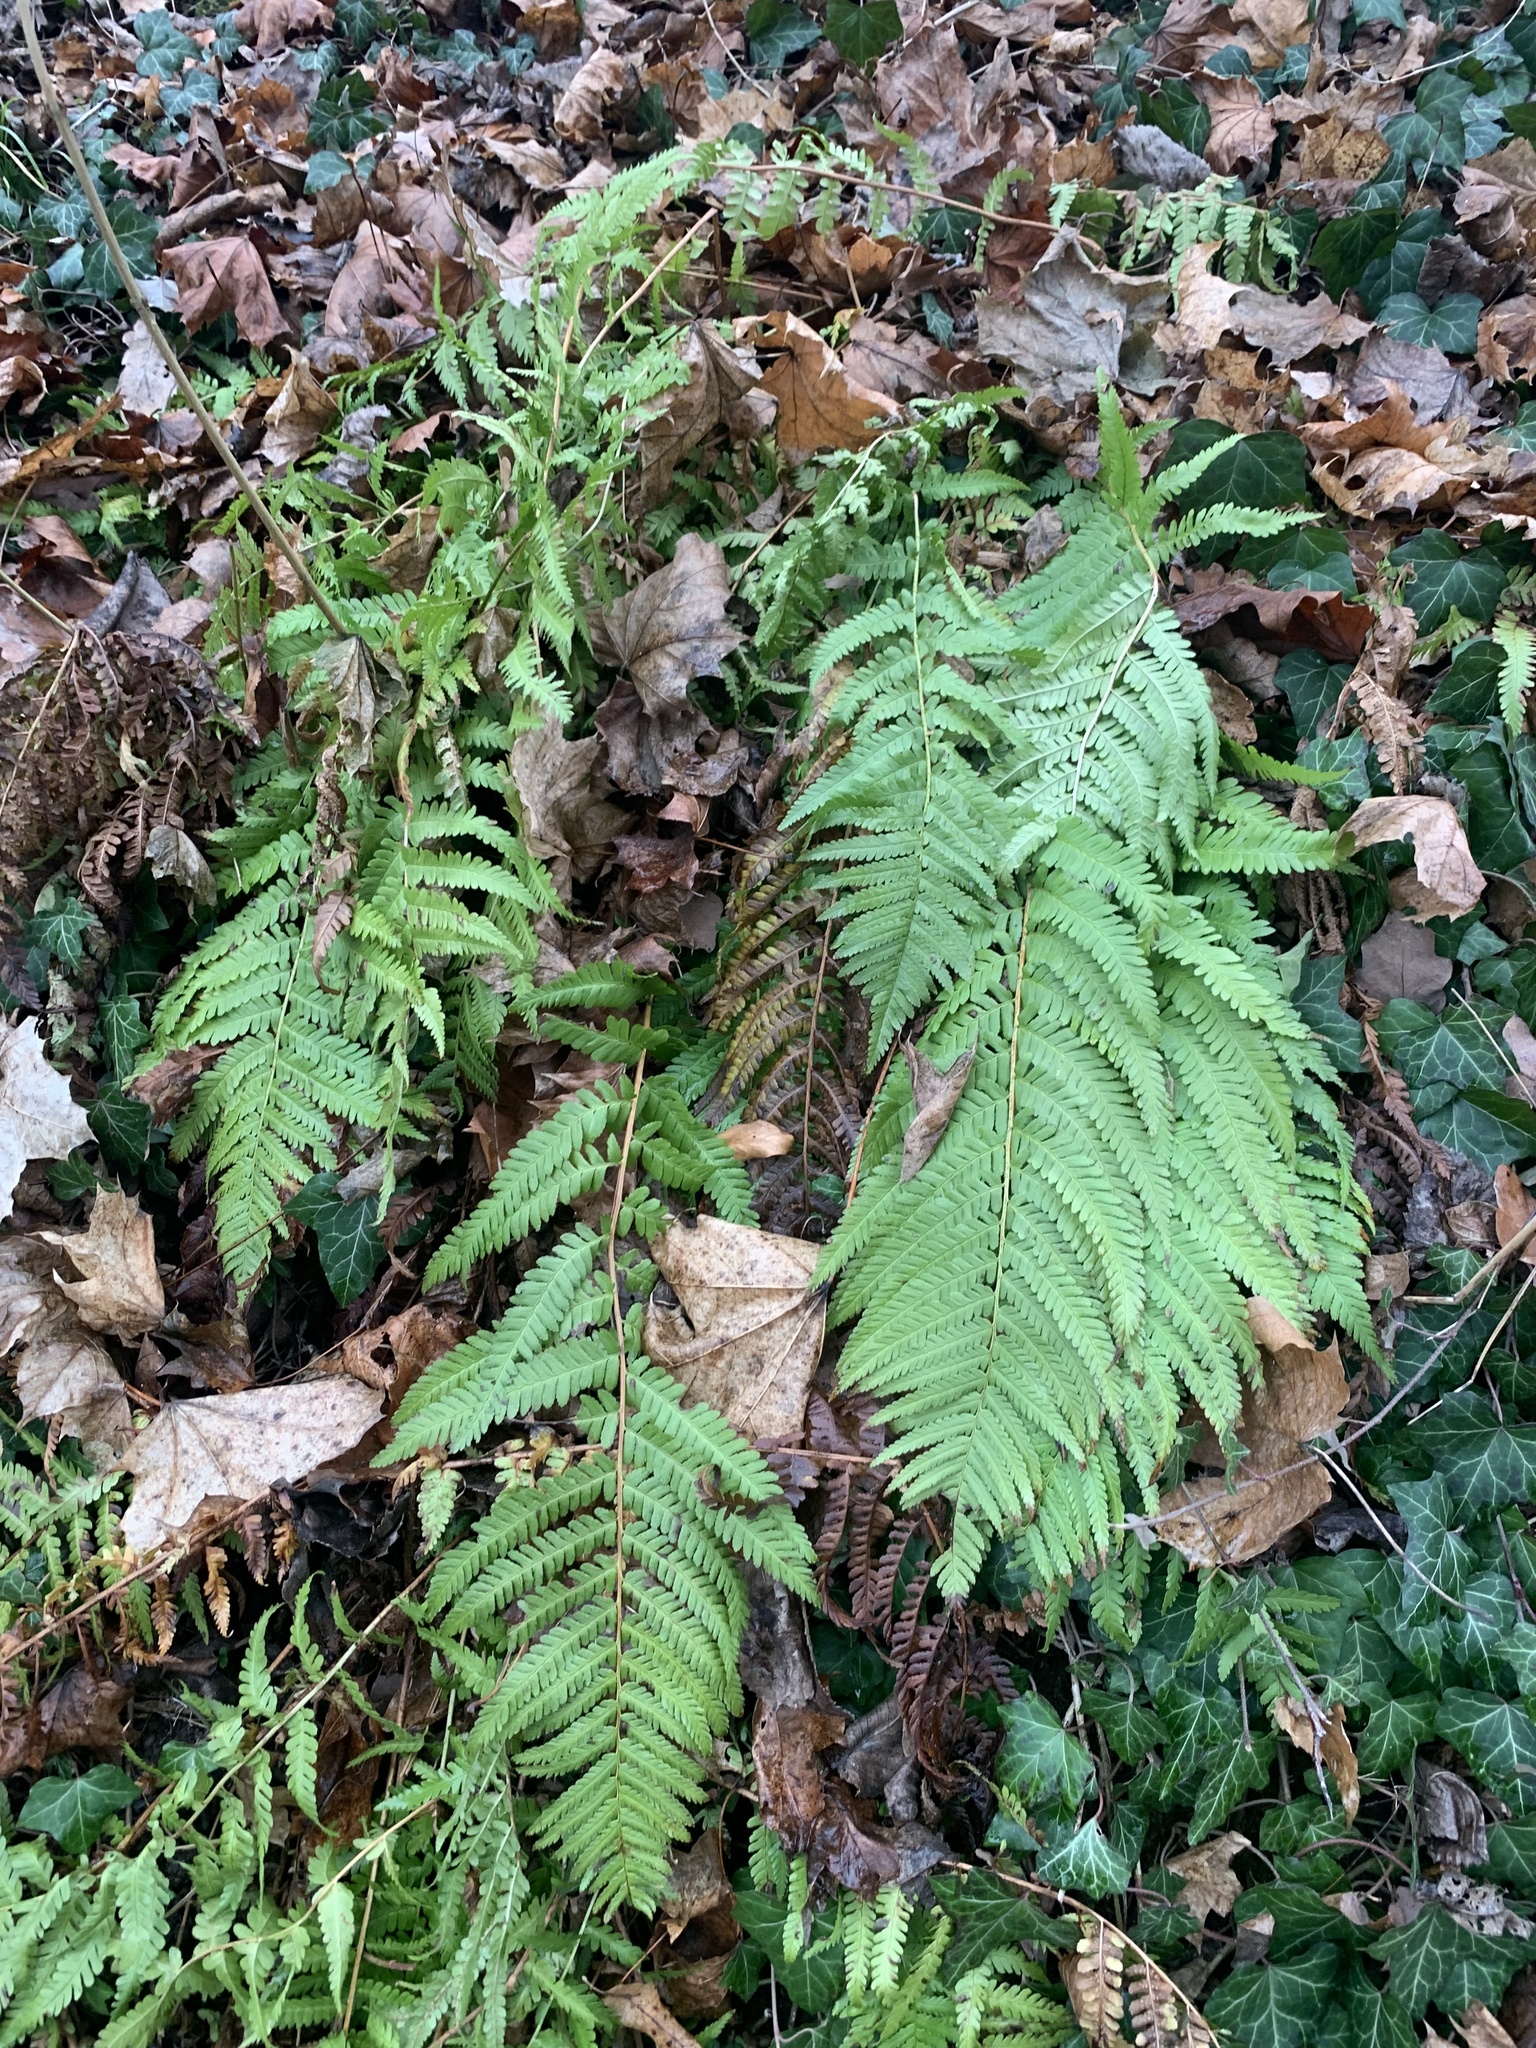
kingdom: Plantae
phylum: Tracheophyta
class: Polypodiopsida
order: Polypodiales
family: Dryopteridaceae
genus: Dryopteris
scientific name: Dryopteris filix-mas
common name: Male fern
